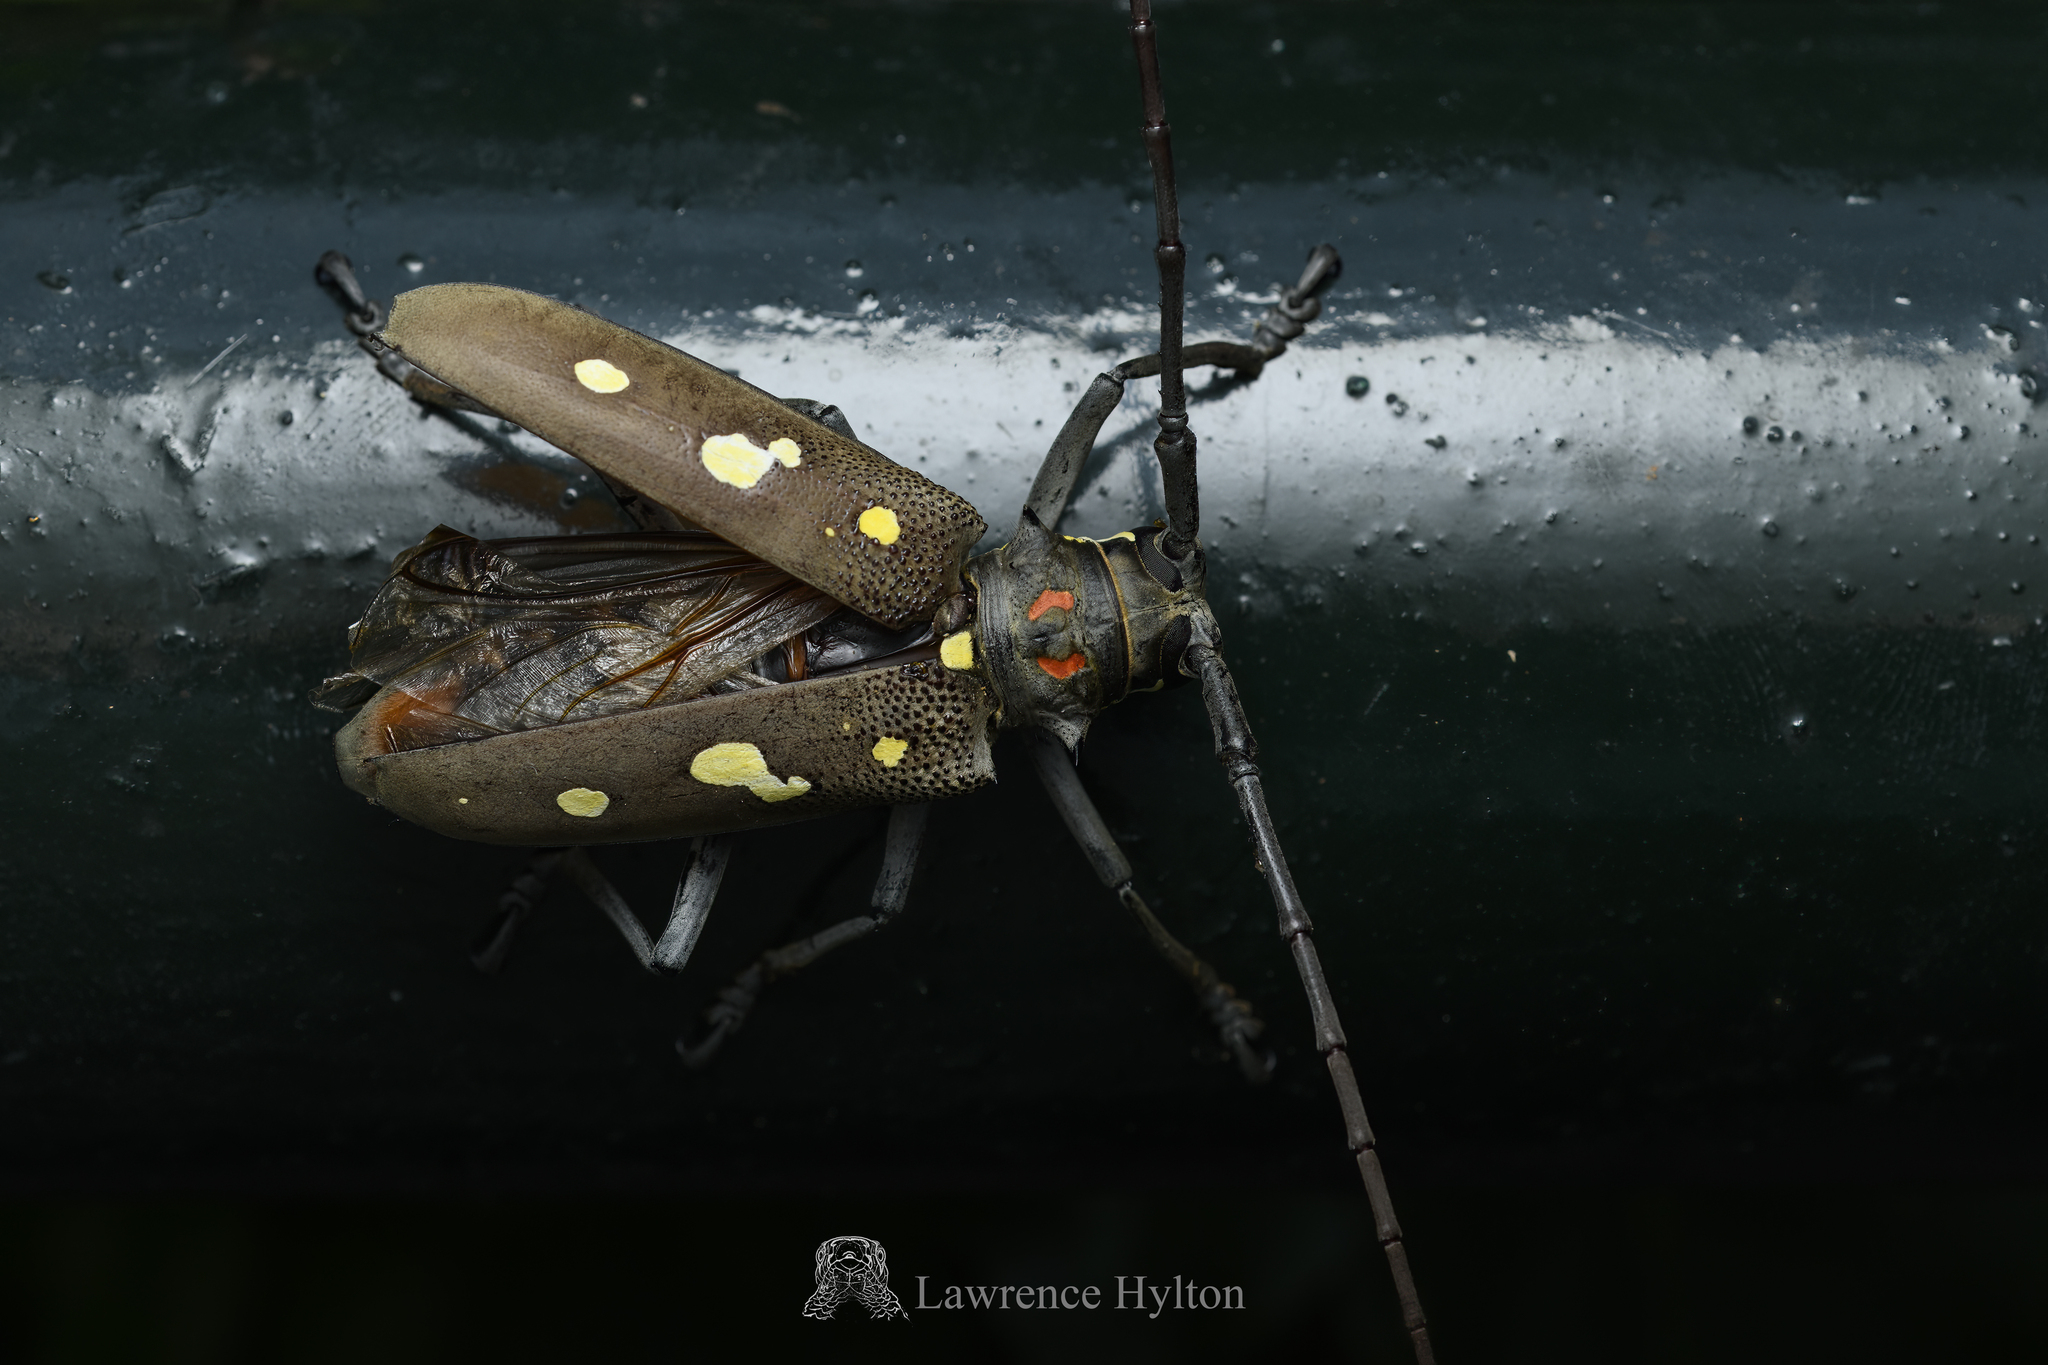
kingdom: Animalia
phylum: Arthropoda
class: Insecta
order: Coleoptera
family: Cerambycidae
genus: Batocera
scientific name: Batocera rubus
